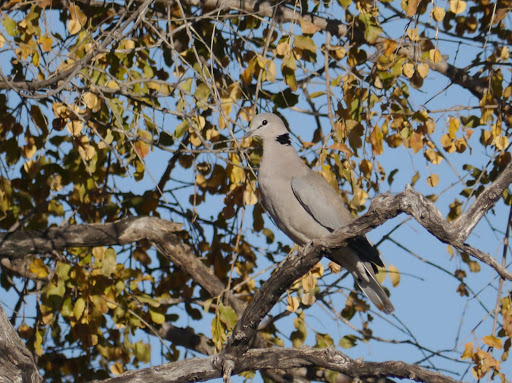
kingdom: Animalia
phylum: Chordata
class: Aves
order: Columbiformes
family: Columbidae
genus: Streptopelia
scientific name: Streptopelia capicola
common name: Ring-necked dove
